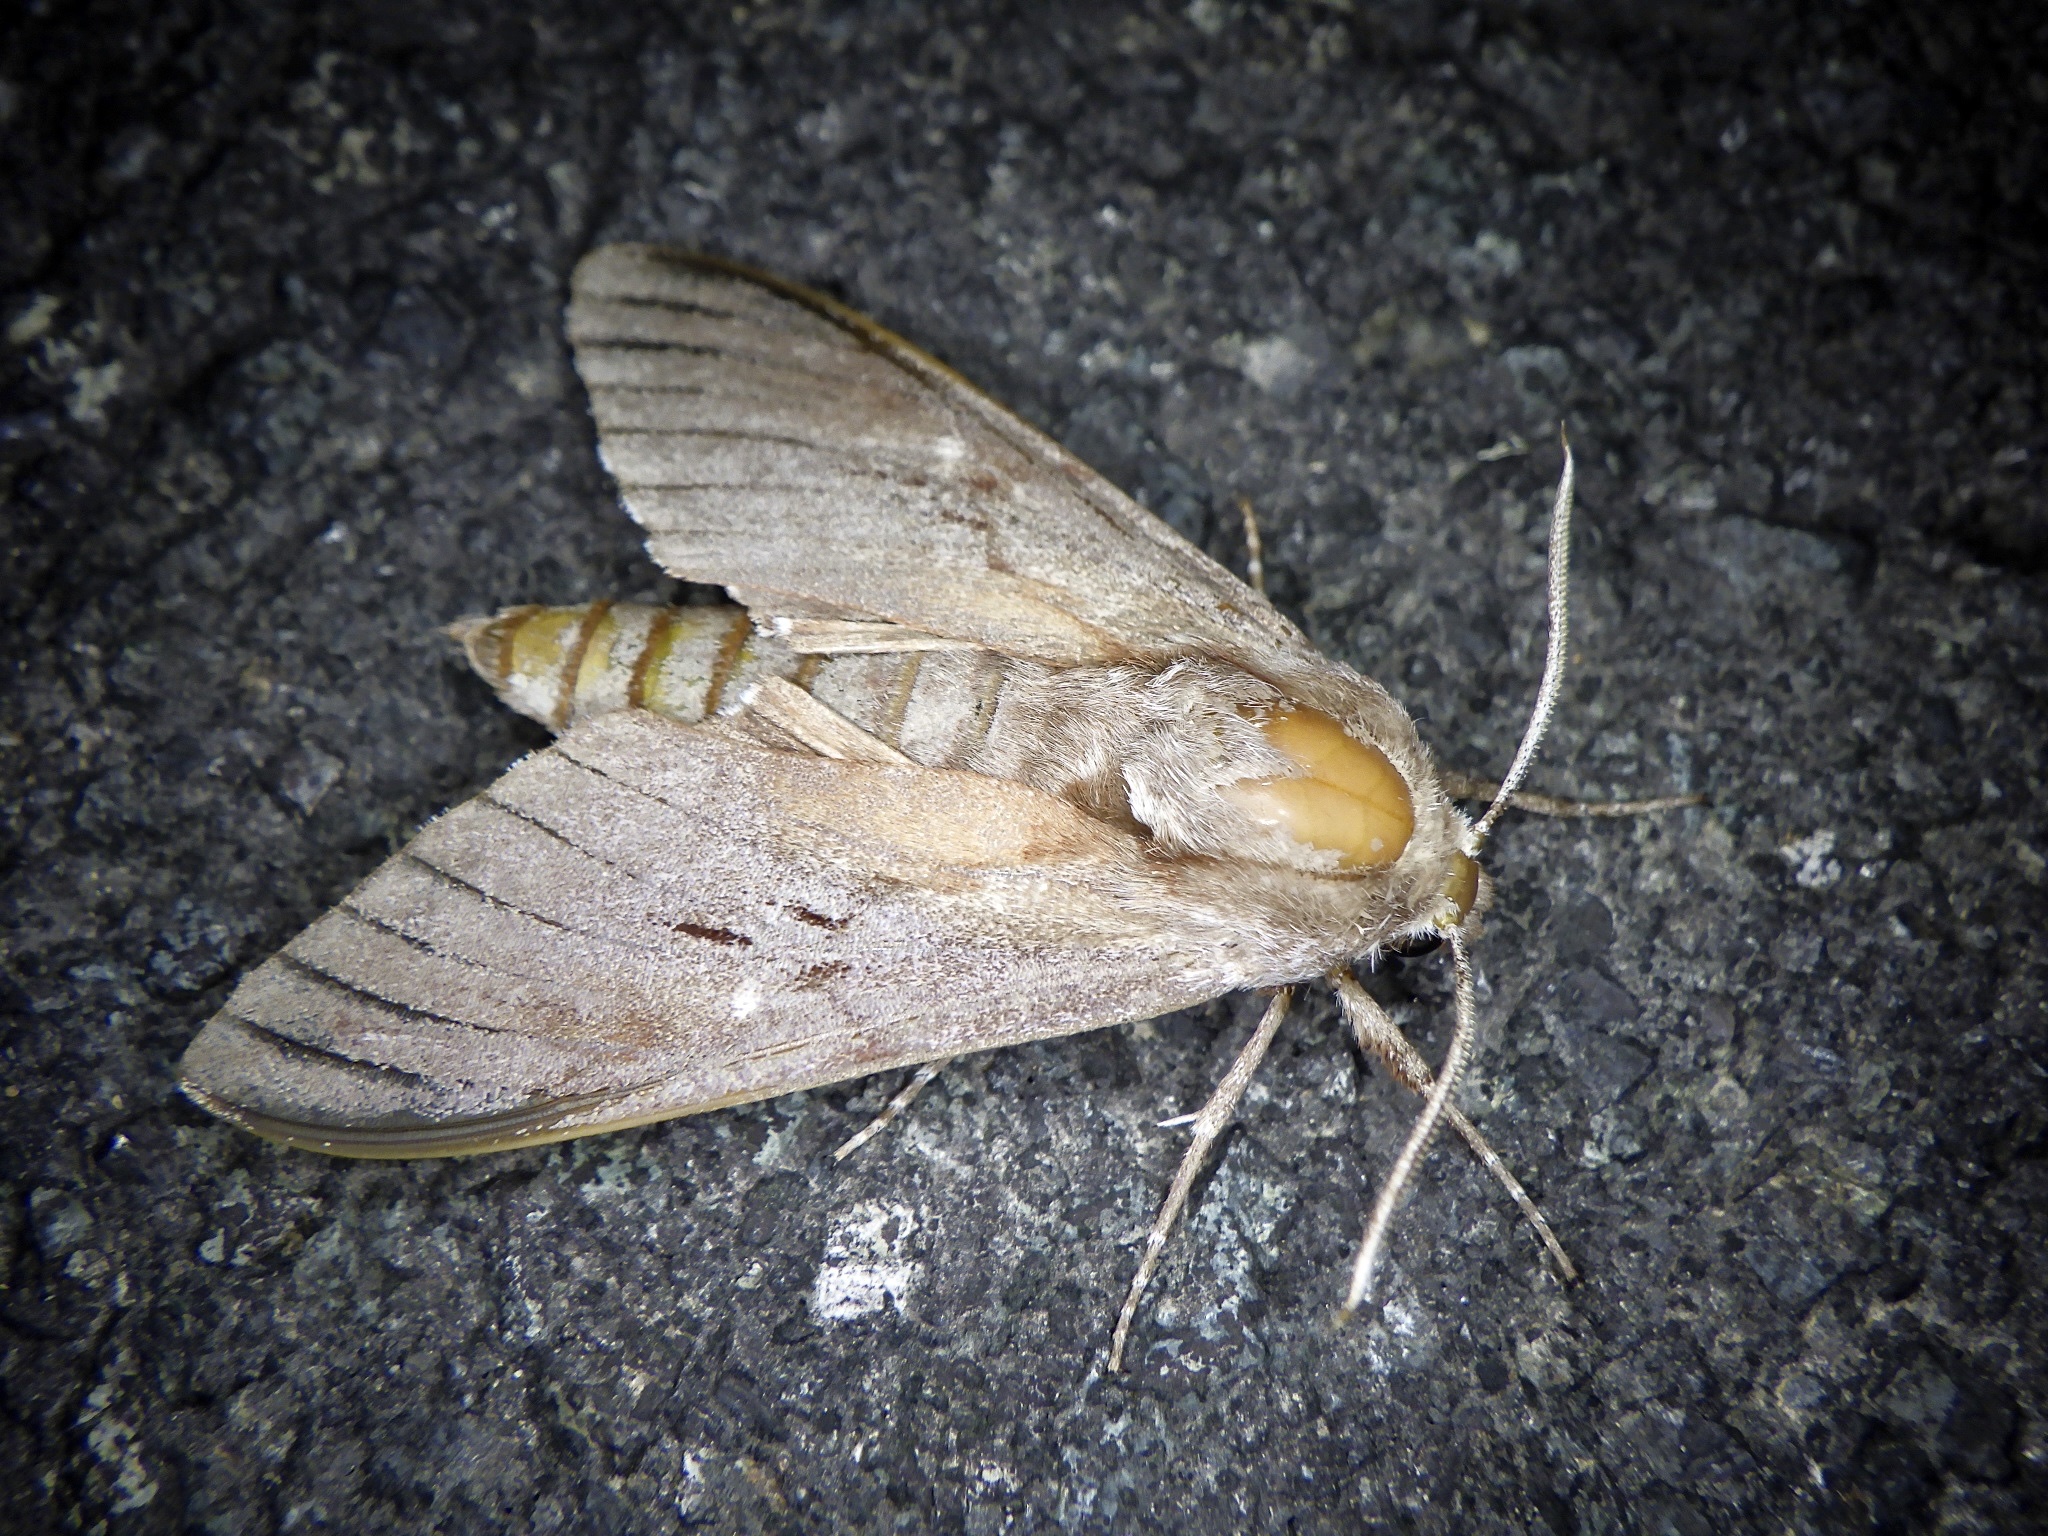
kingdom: Animalia
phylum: Arthropoda
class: Insecta
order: Lepidoptera
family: Sphingidae
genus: Sphinx
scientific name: Sphinx caligineus
